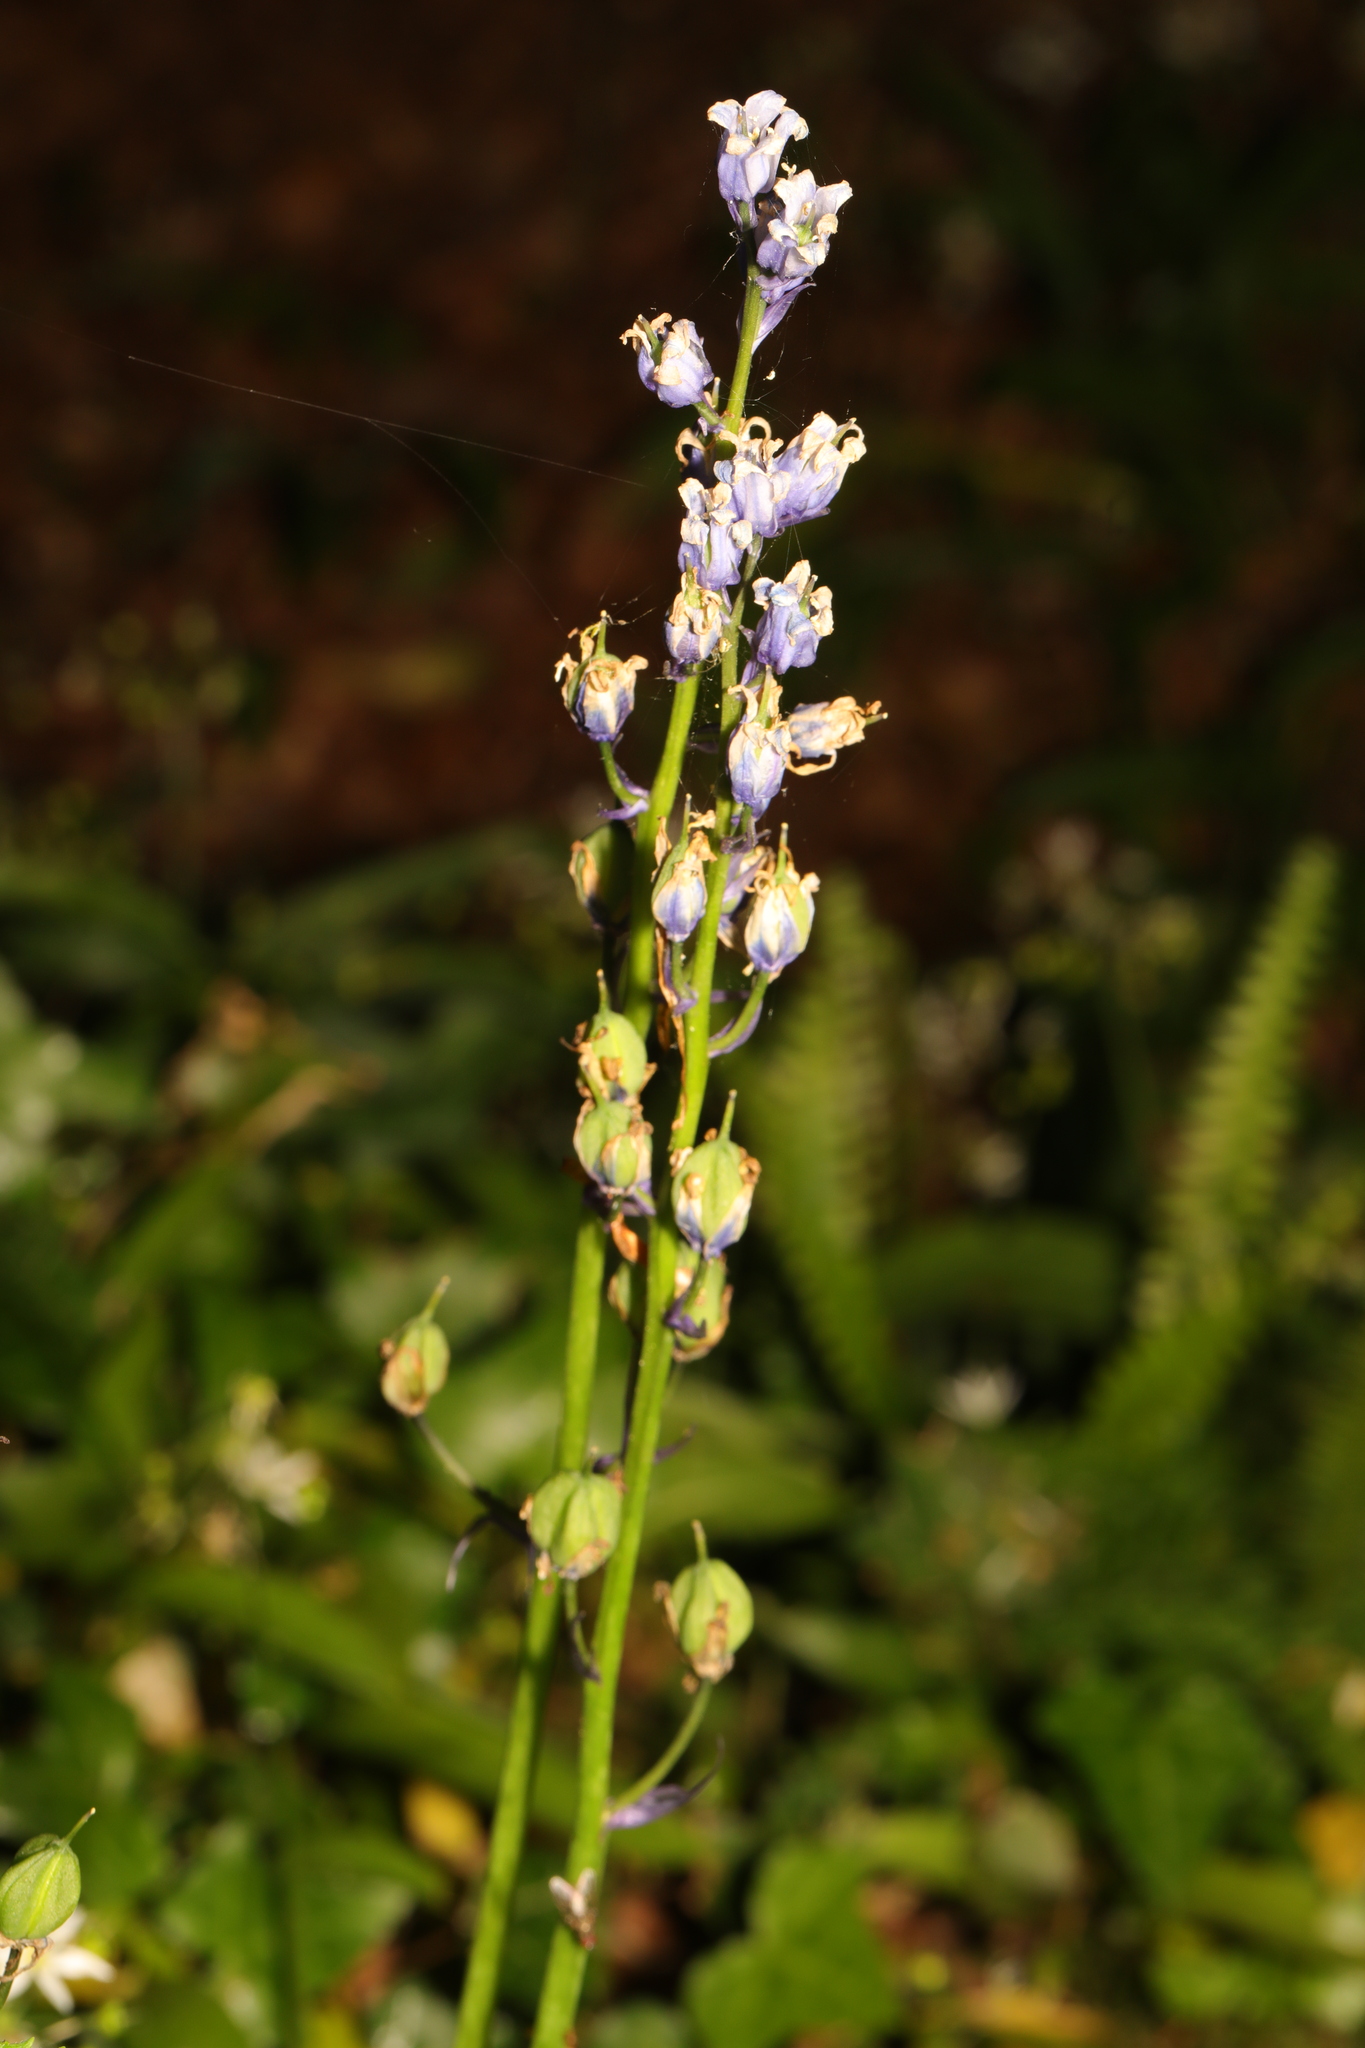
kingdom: Plantae
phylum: Tracheophyta
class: Liliopsida
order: Asparagales
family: Asparagaceae
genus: Hyacinthoides
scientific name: Hyacinthoides non-scripta
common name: Bluebell
